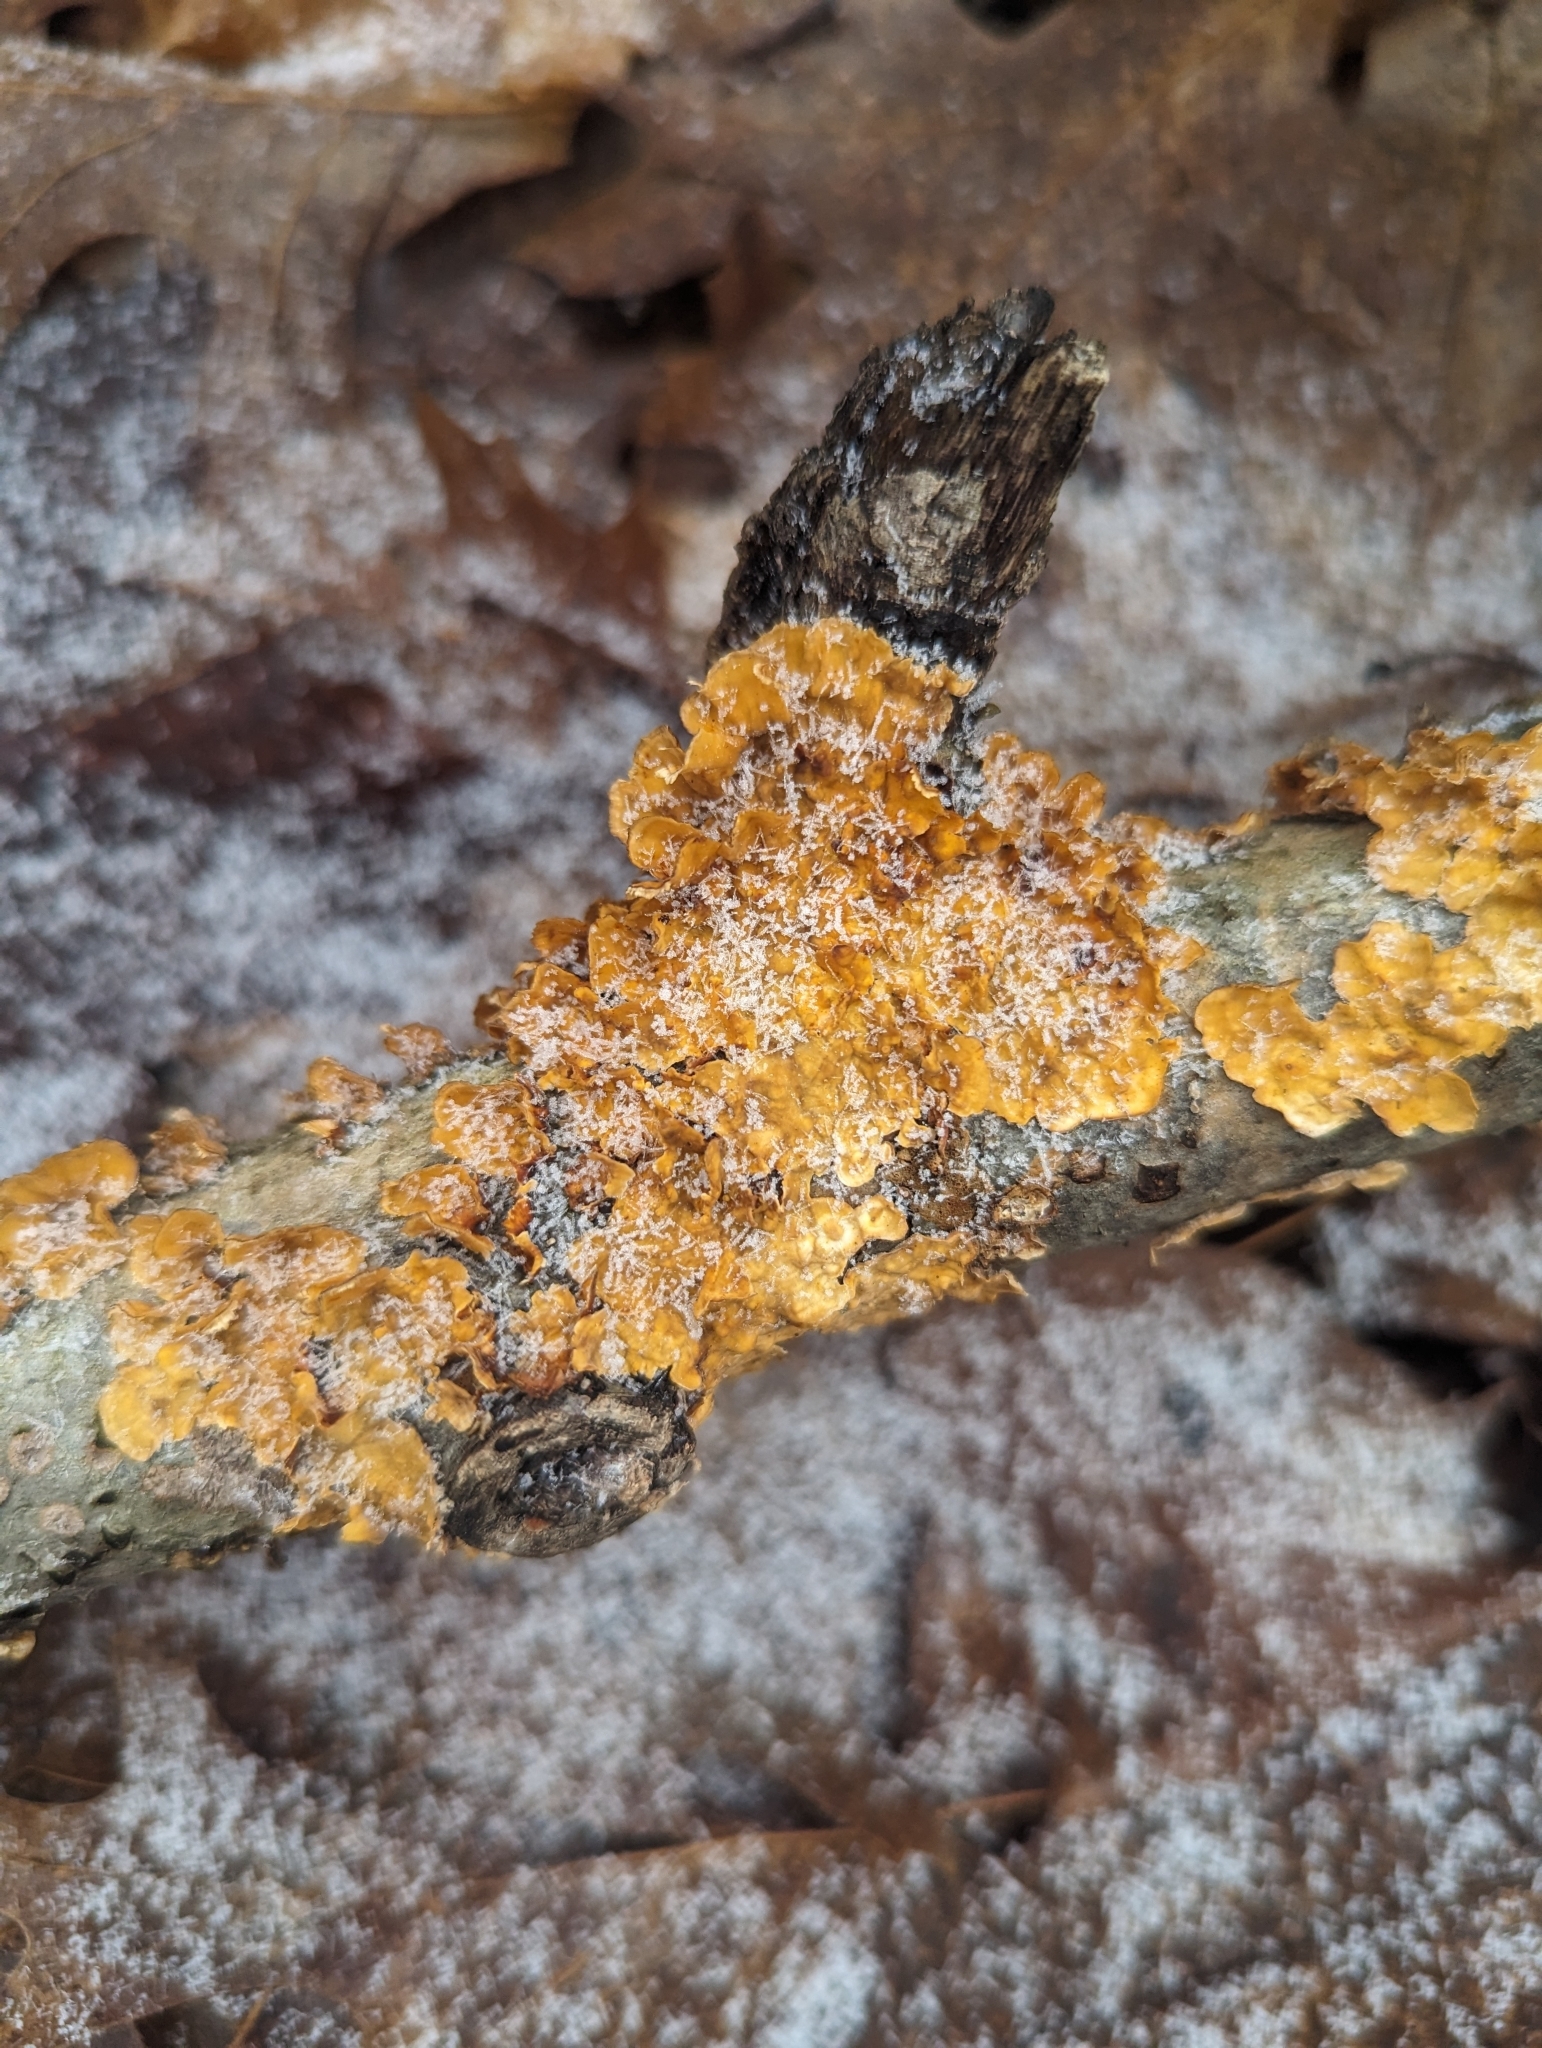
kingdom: Fungi
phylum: Basidiomycota
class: Agaricomycetes
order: Russulales
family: Stereaceae
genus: Stereum
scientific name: Stereum complicatum
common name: Crowded parchment
